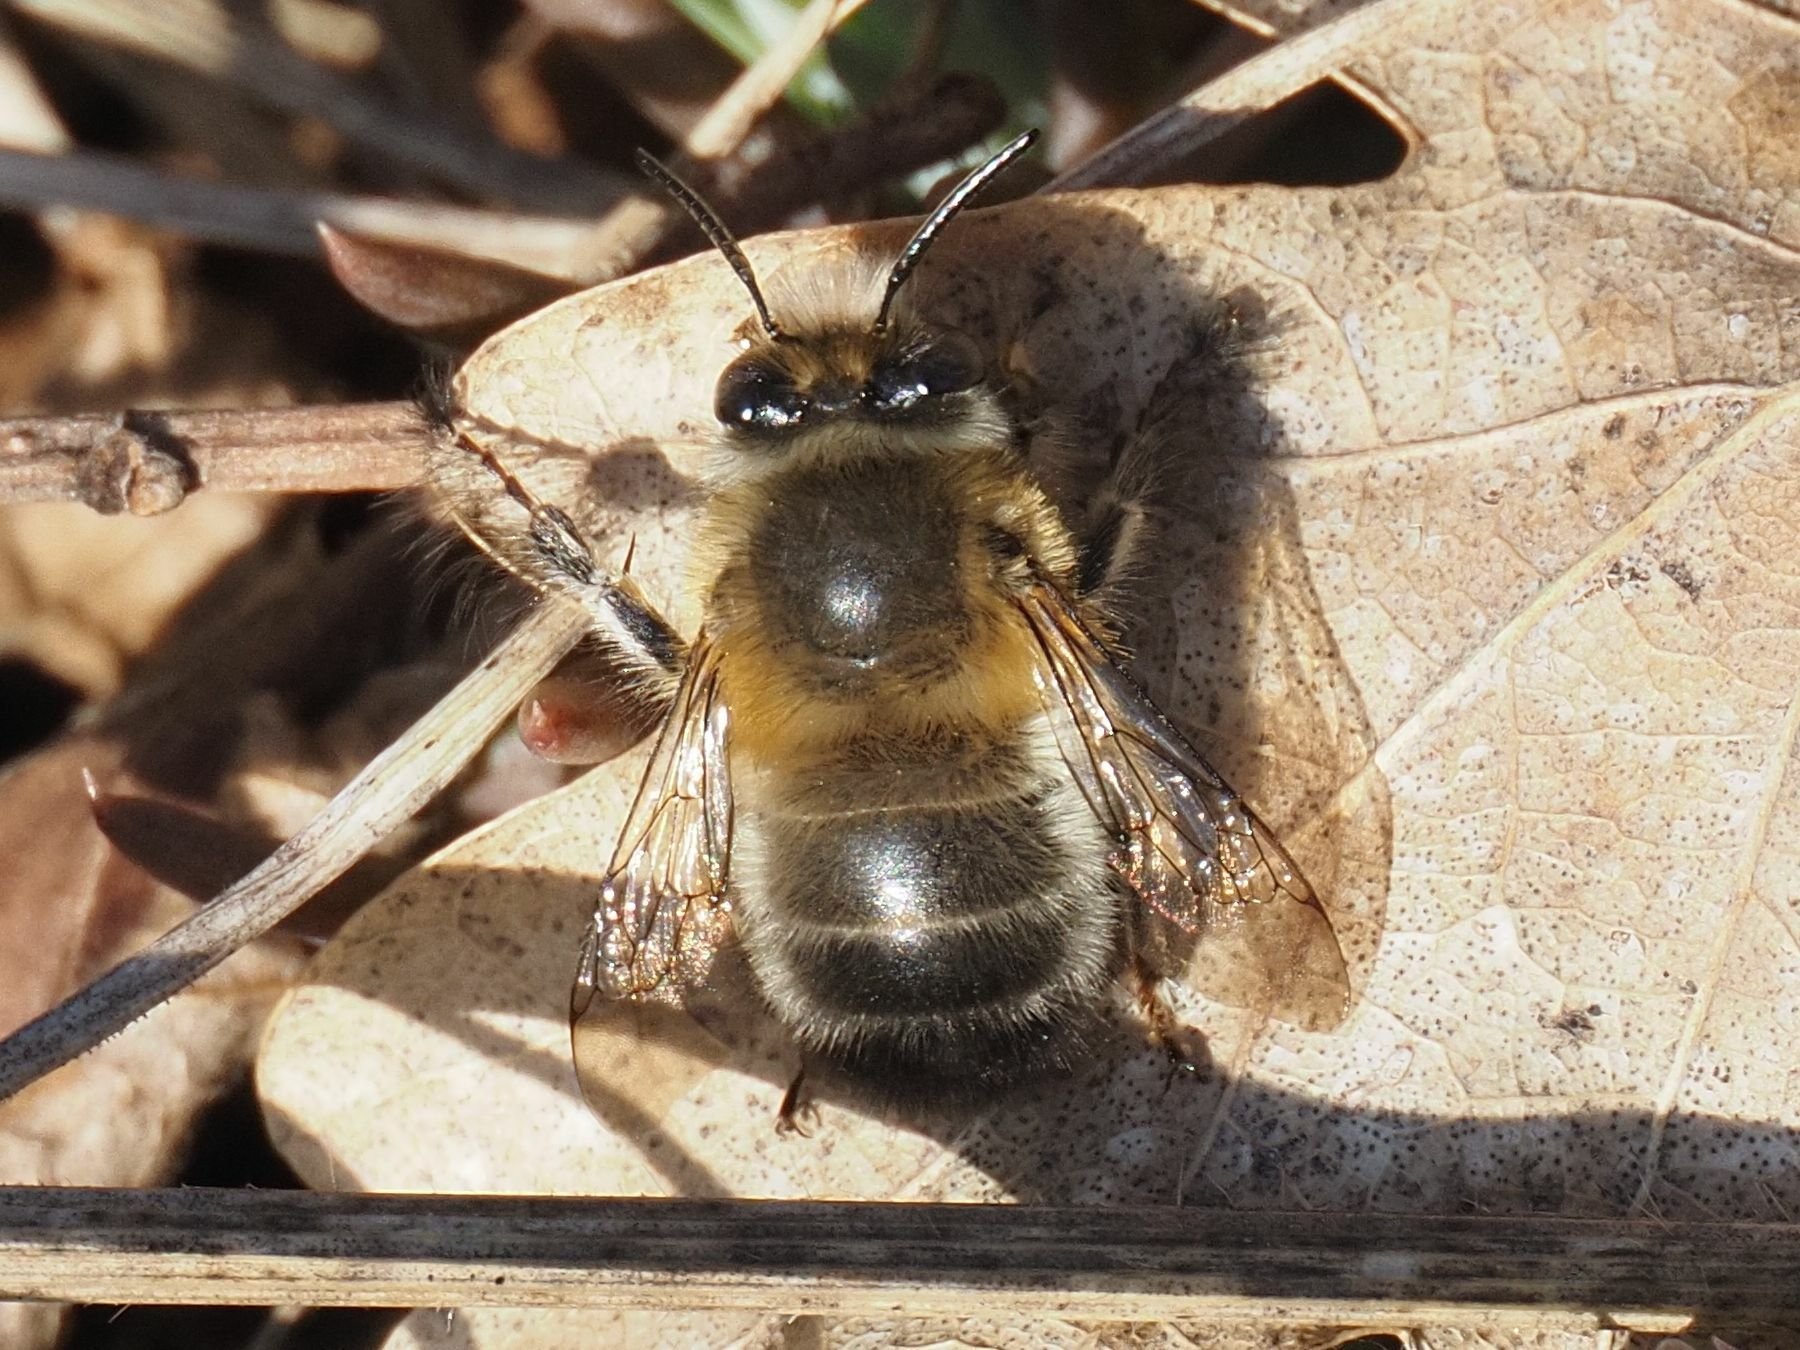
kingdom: Animalia
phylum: Arthropoda
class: Insecta
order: Hymenoptera
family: Apidae
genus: Anthophora
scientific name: Anthophora plumipes
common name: Hairy-footed flower bee
